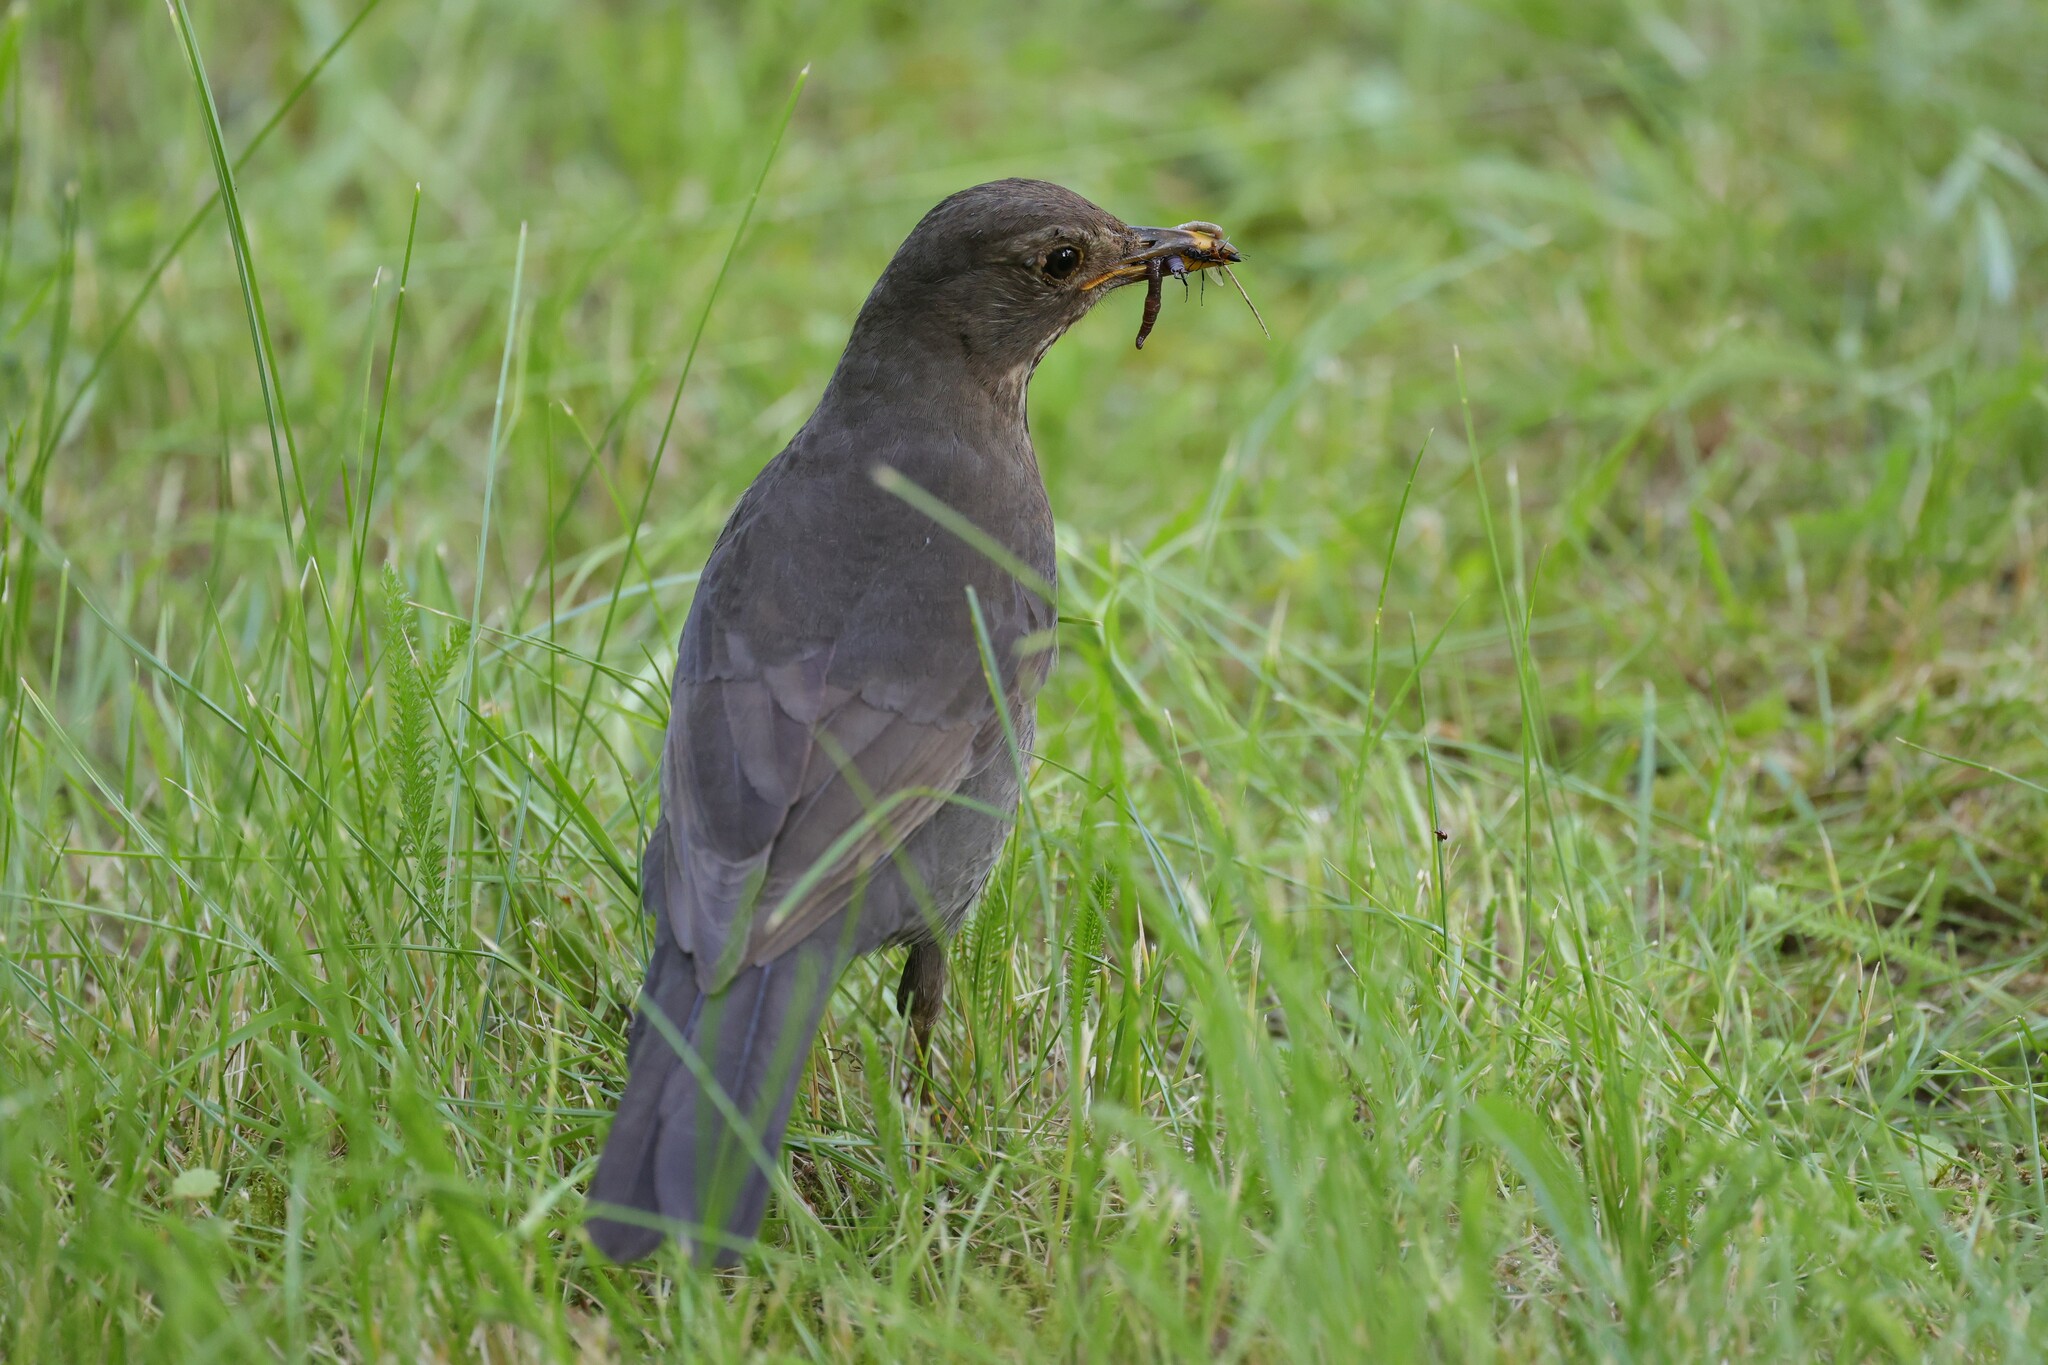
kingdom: Animalia
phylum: Chordata
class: Aves
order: Passeriformes
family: Turdidae
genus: Turdus
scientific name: Turdus merula
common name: Common blackbird
